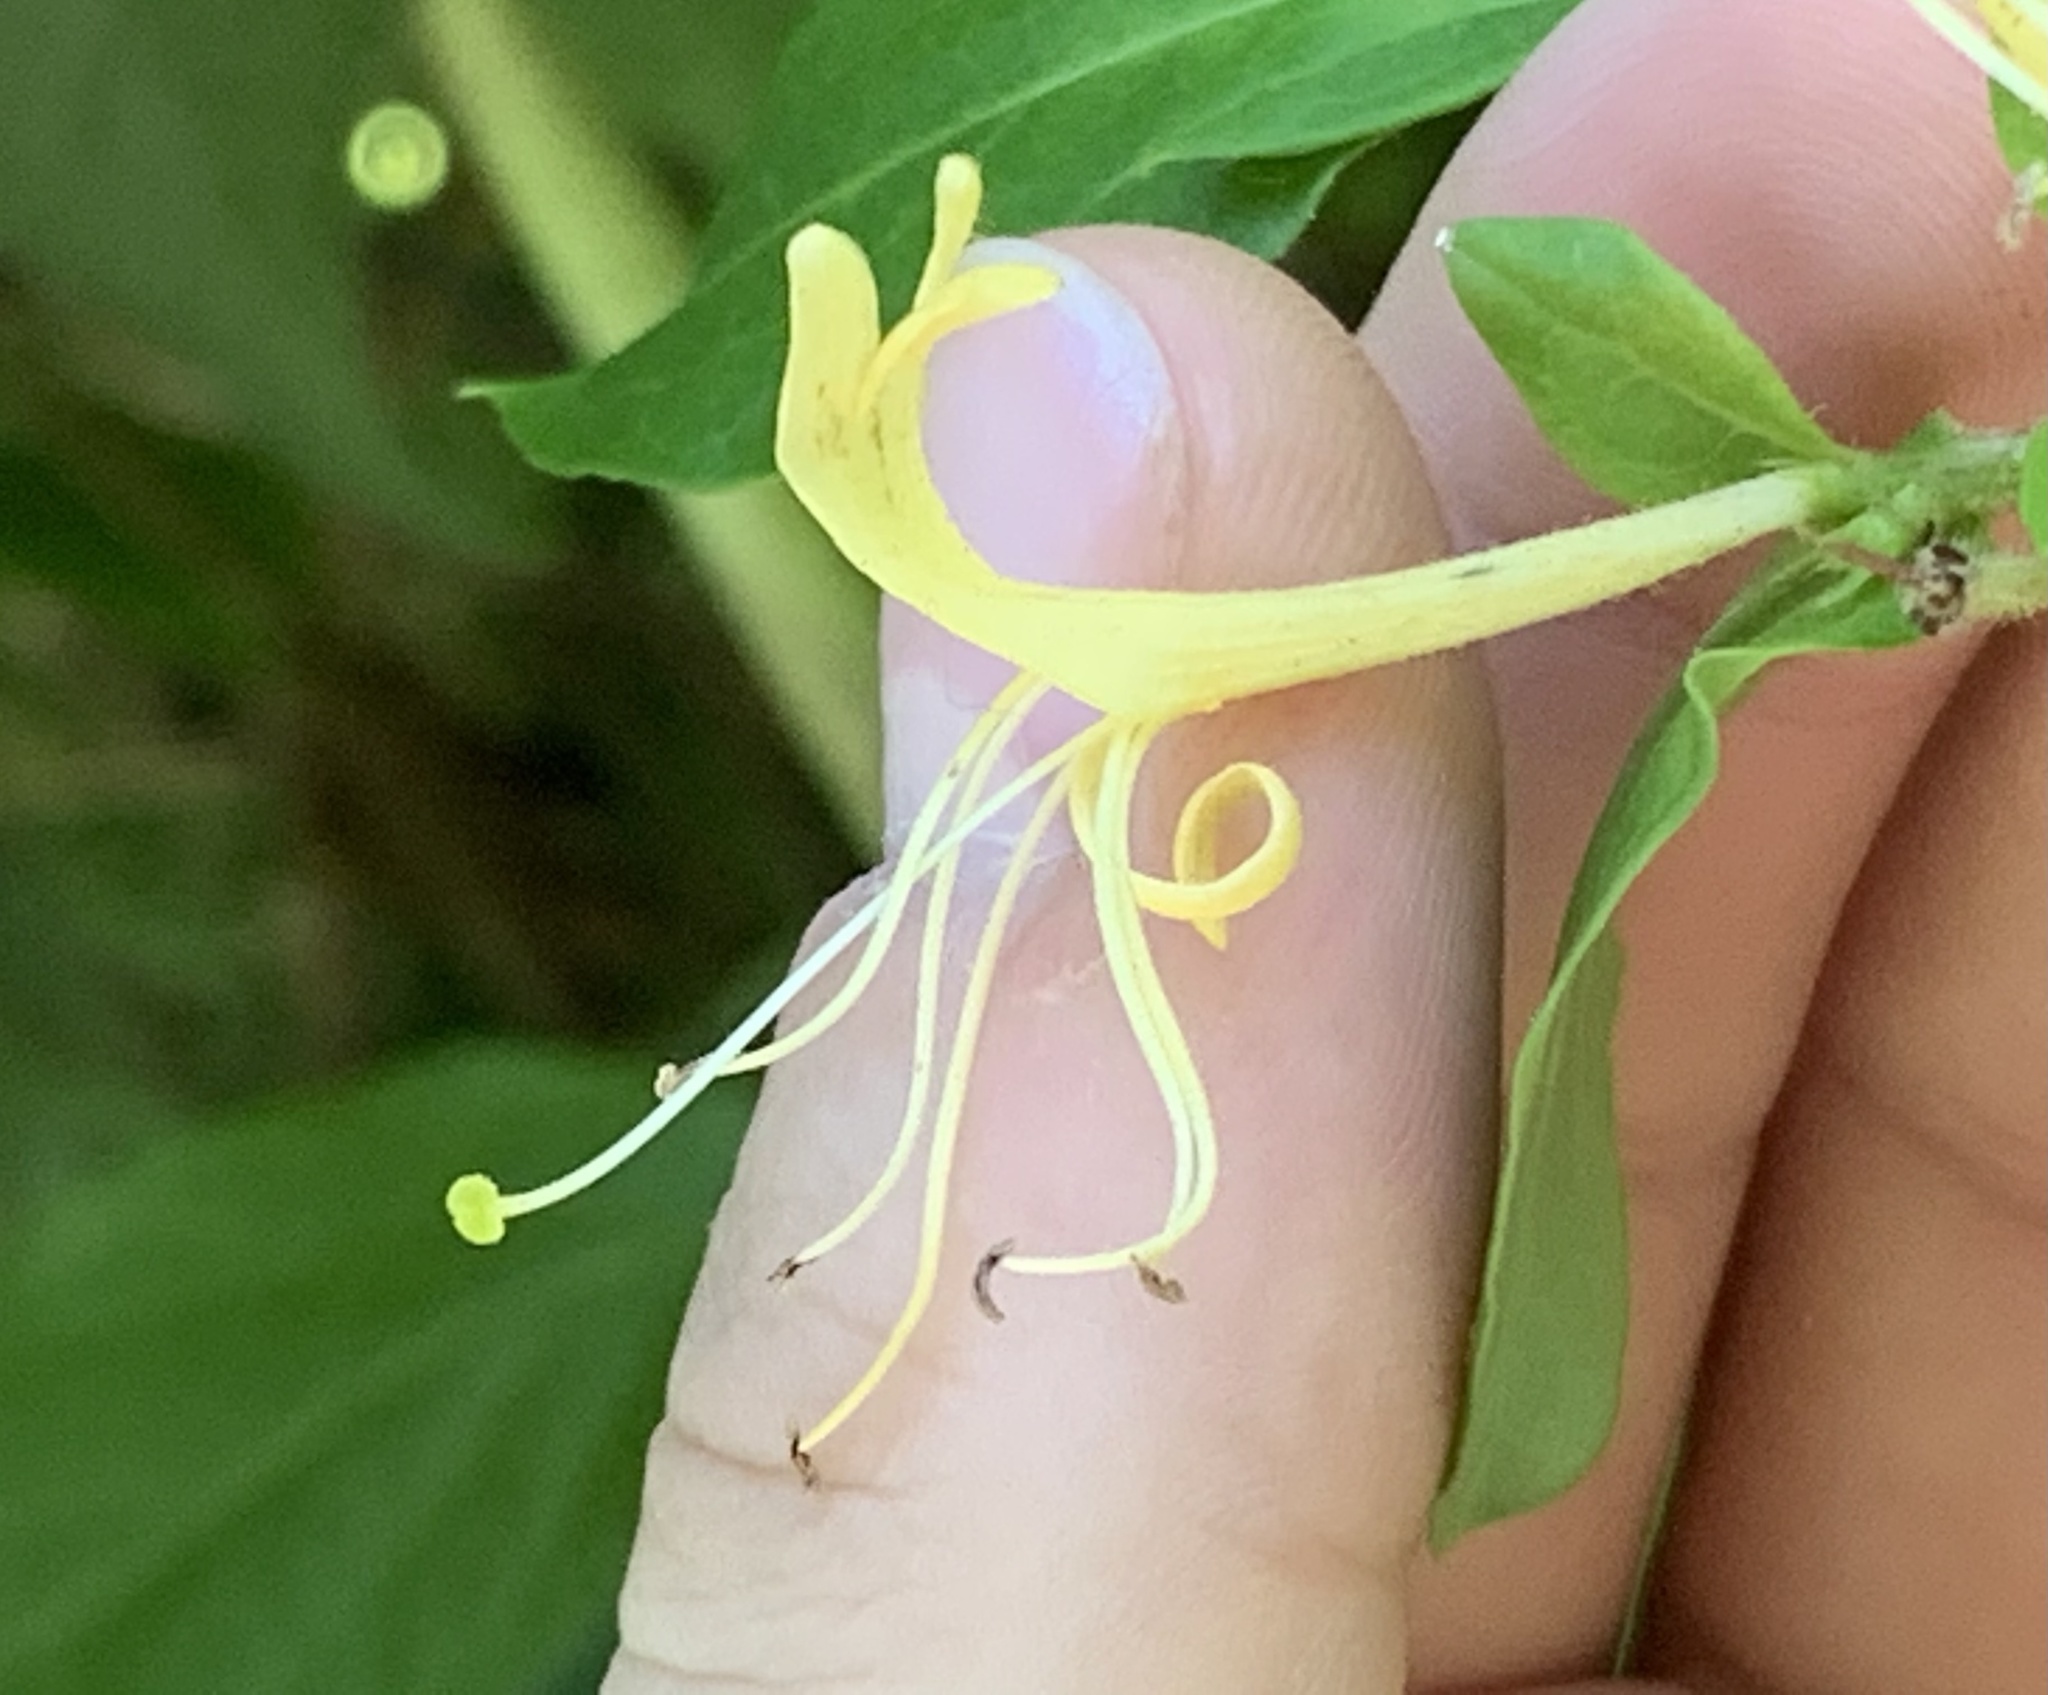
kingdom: Plantae
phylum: Tracheophyta
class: Magnoliopsida
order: Dipsacales
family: Caprifoliaceae
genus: Lonicera
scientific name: Lonicera japonica
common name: Japanese honeysuckle
